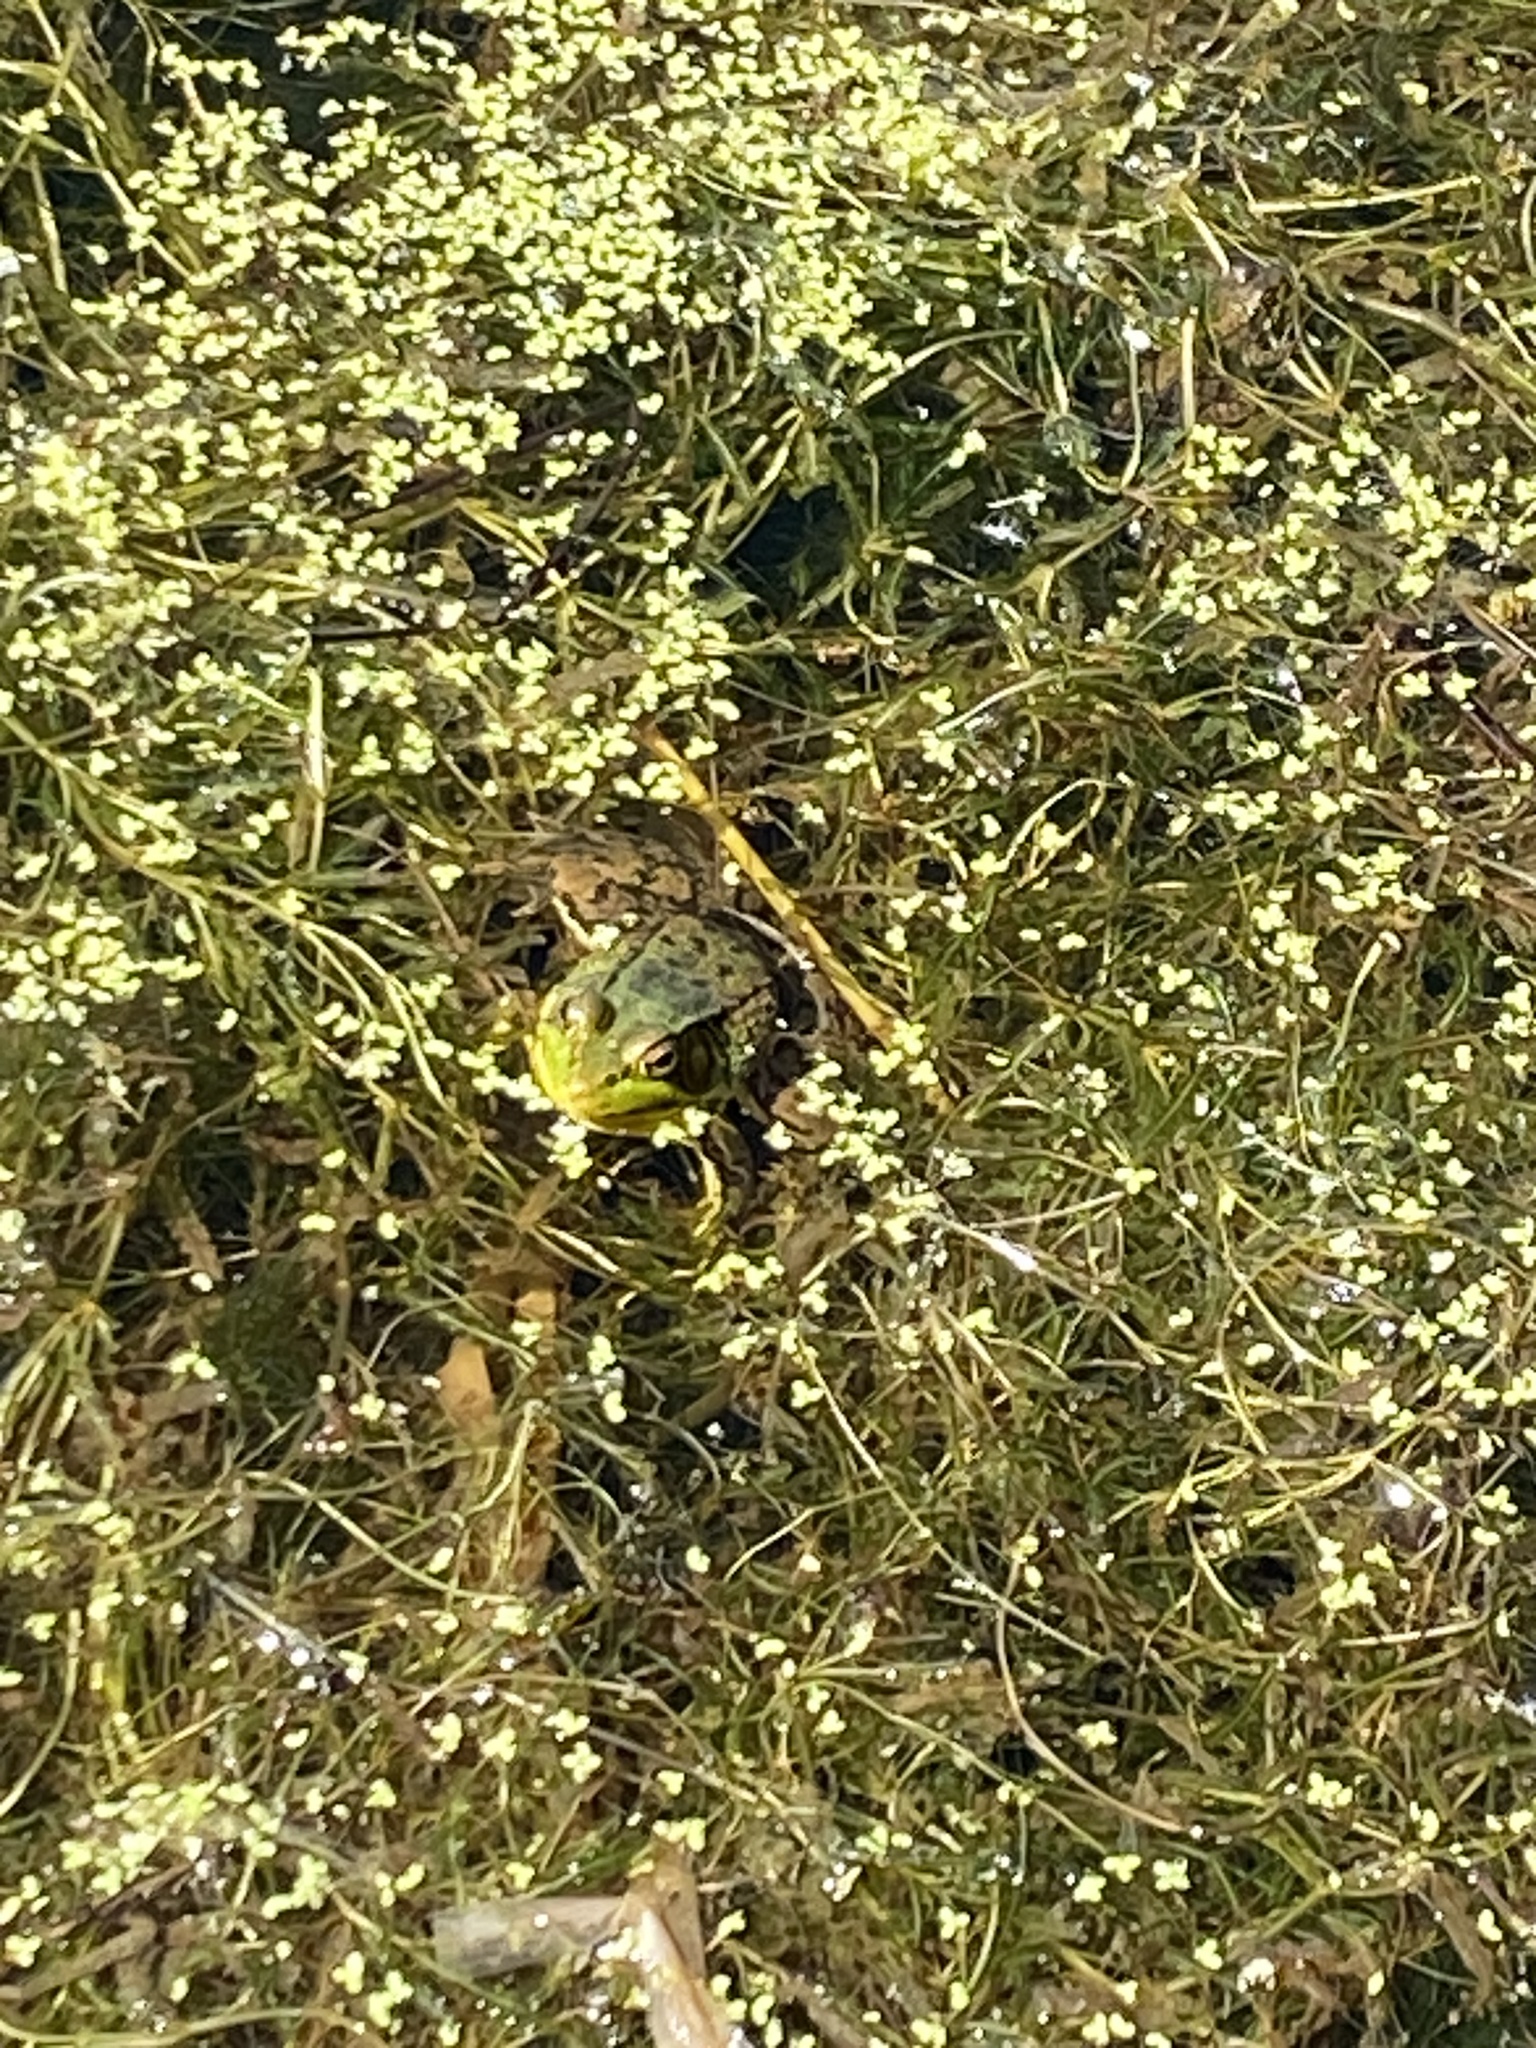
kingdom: Animalia
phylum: Chordata
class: Amphibia
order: Anura
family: Ranidae
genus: Lithobates
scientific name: Lithobates clamitans
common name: Green frog
